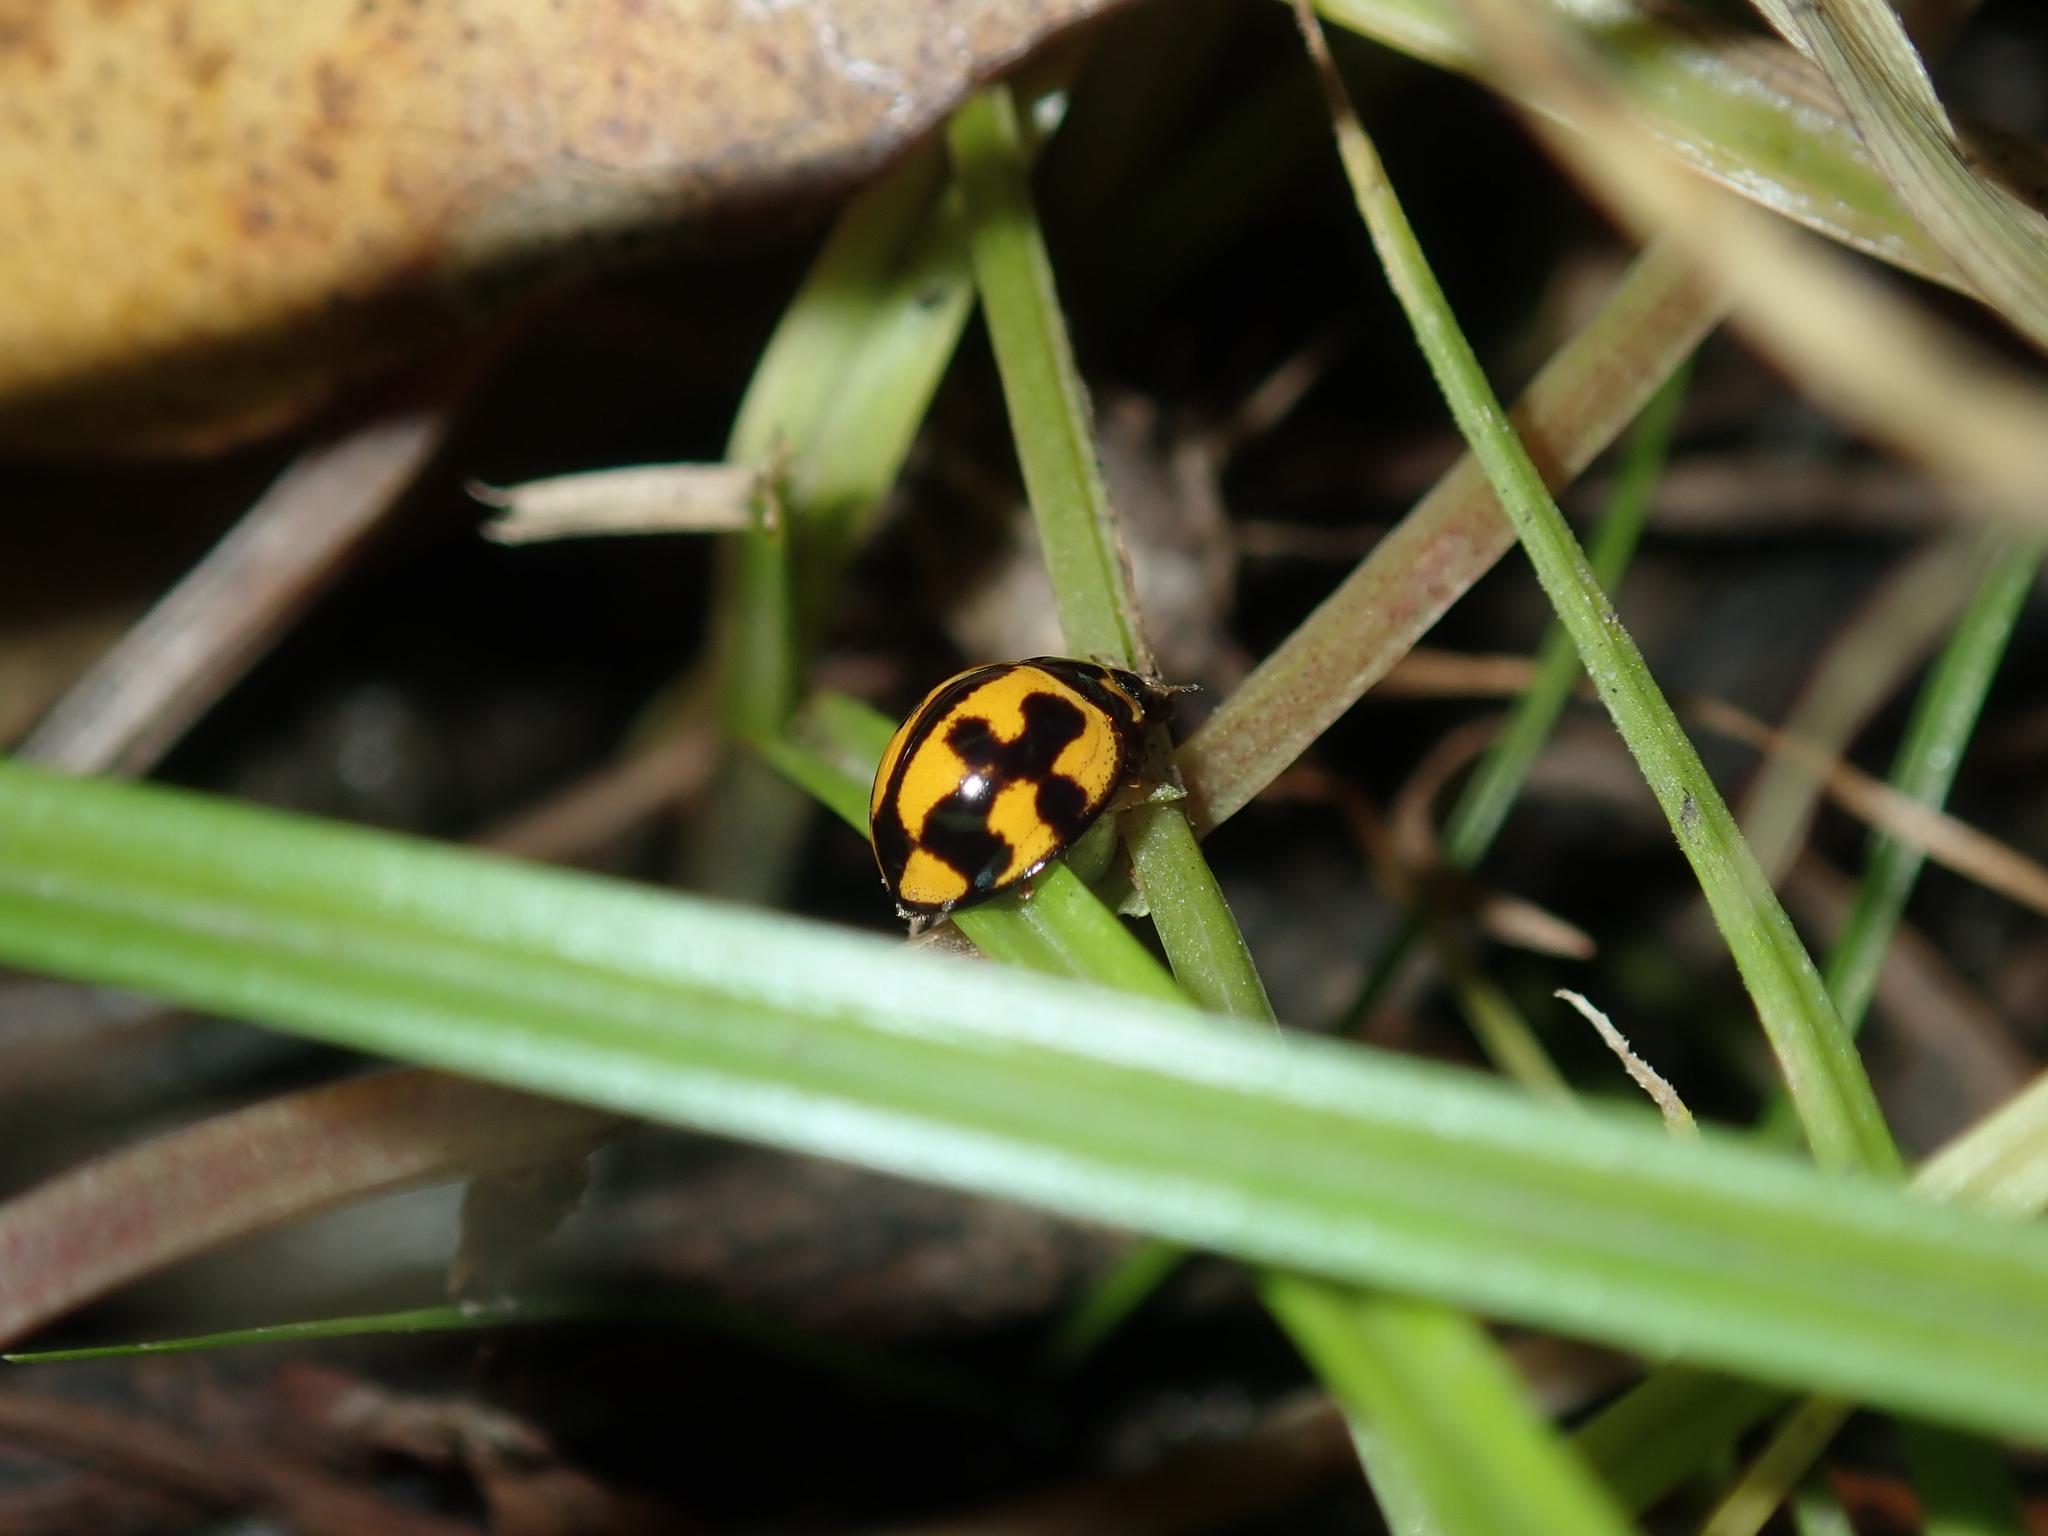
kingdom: Animalia
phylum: Arthropoda
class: Insecta
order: Coleoptera
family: Coccinellidae
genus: Coelophora
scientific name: Coelophora inaequalis
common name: Common australian lady beetle
